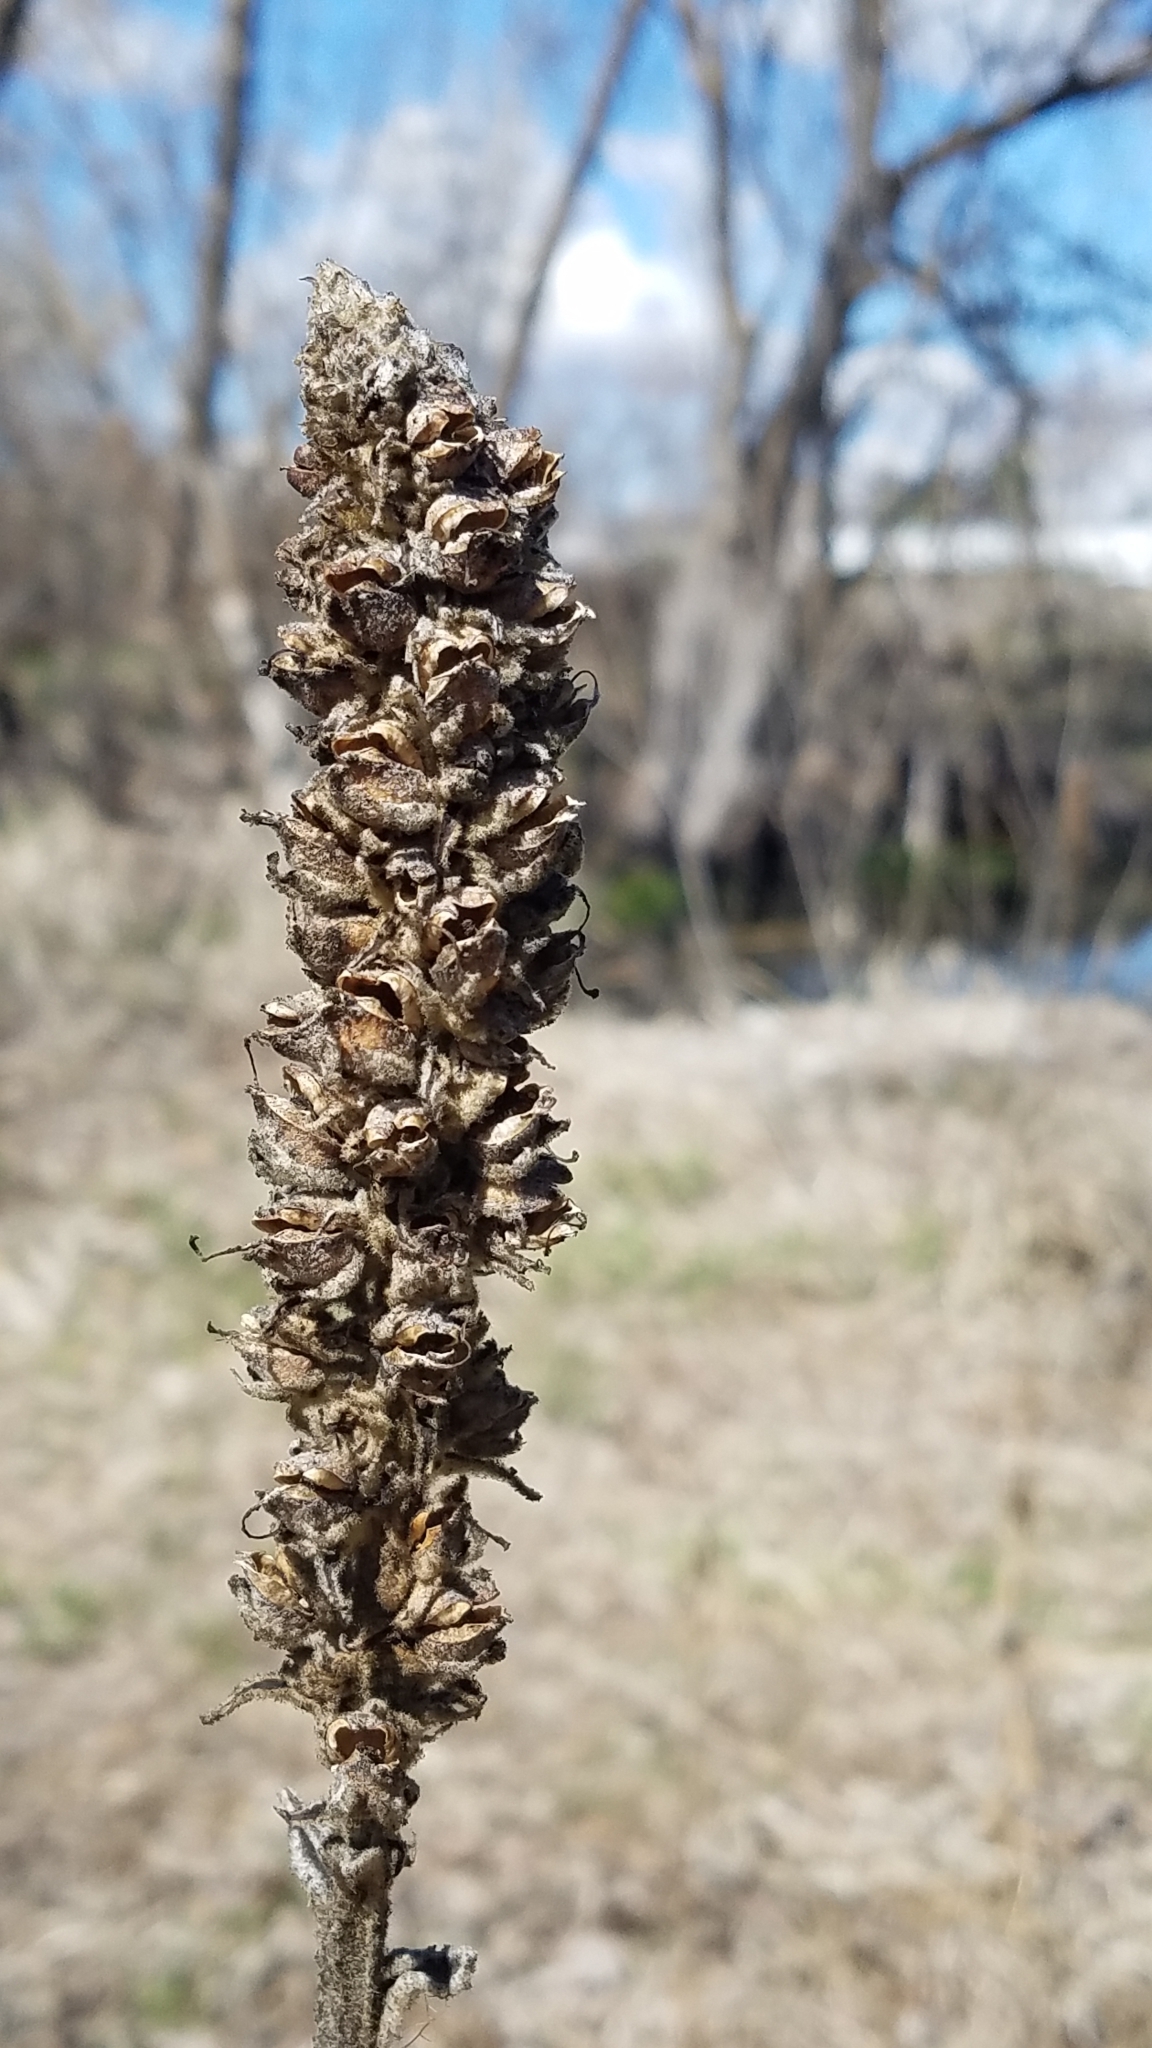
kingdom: Plantae
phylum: Tracheophyta
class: Magnoliopsida
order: Lamiales
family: Scrophulariaceae
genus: Verbascum
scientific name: Verbascum thapsus
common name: Common mullein
